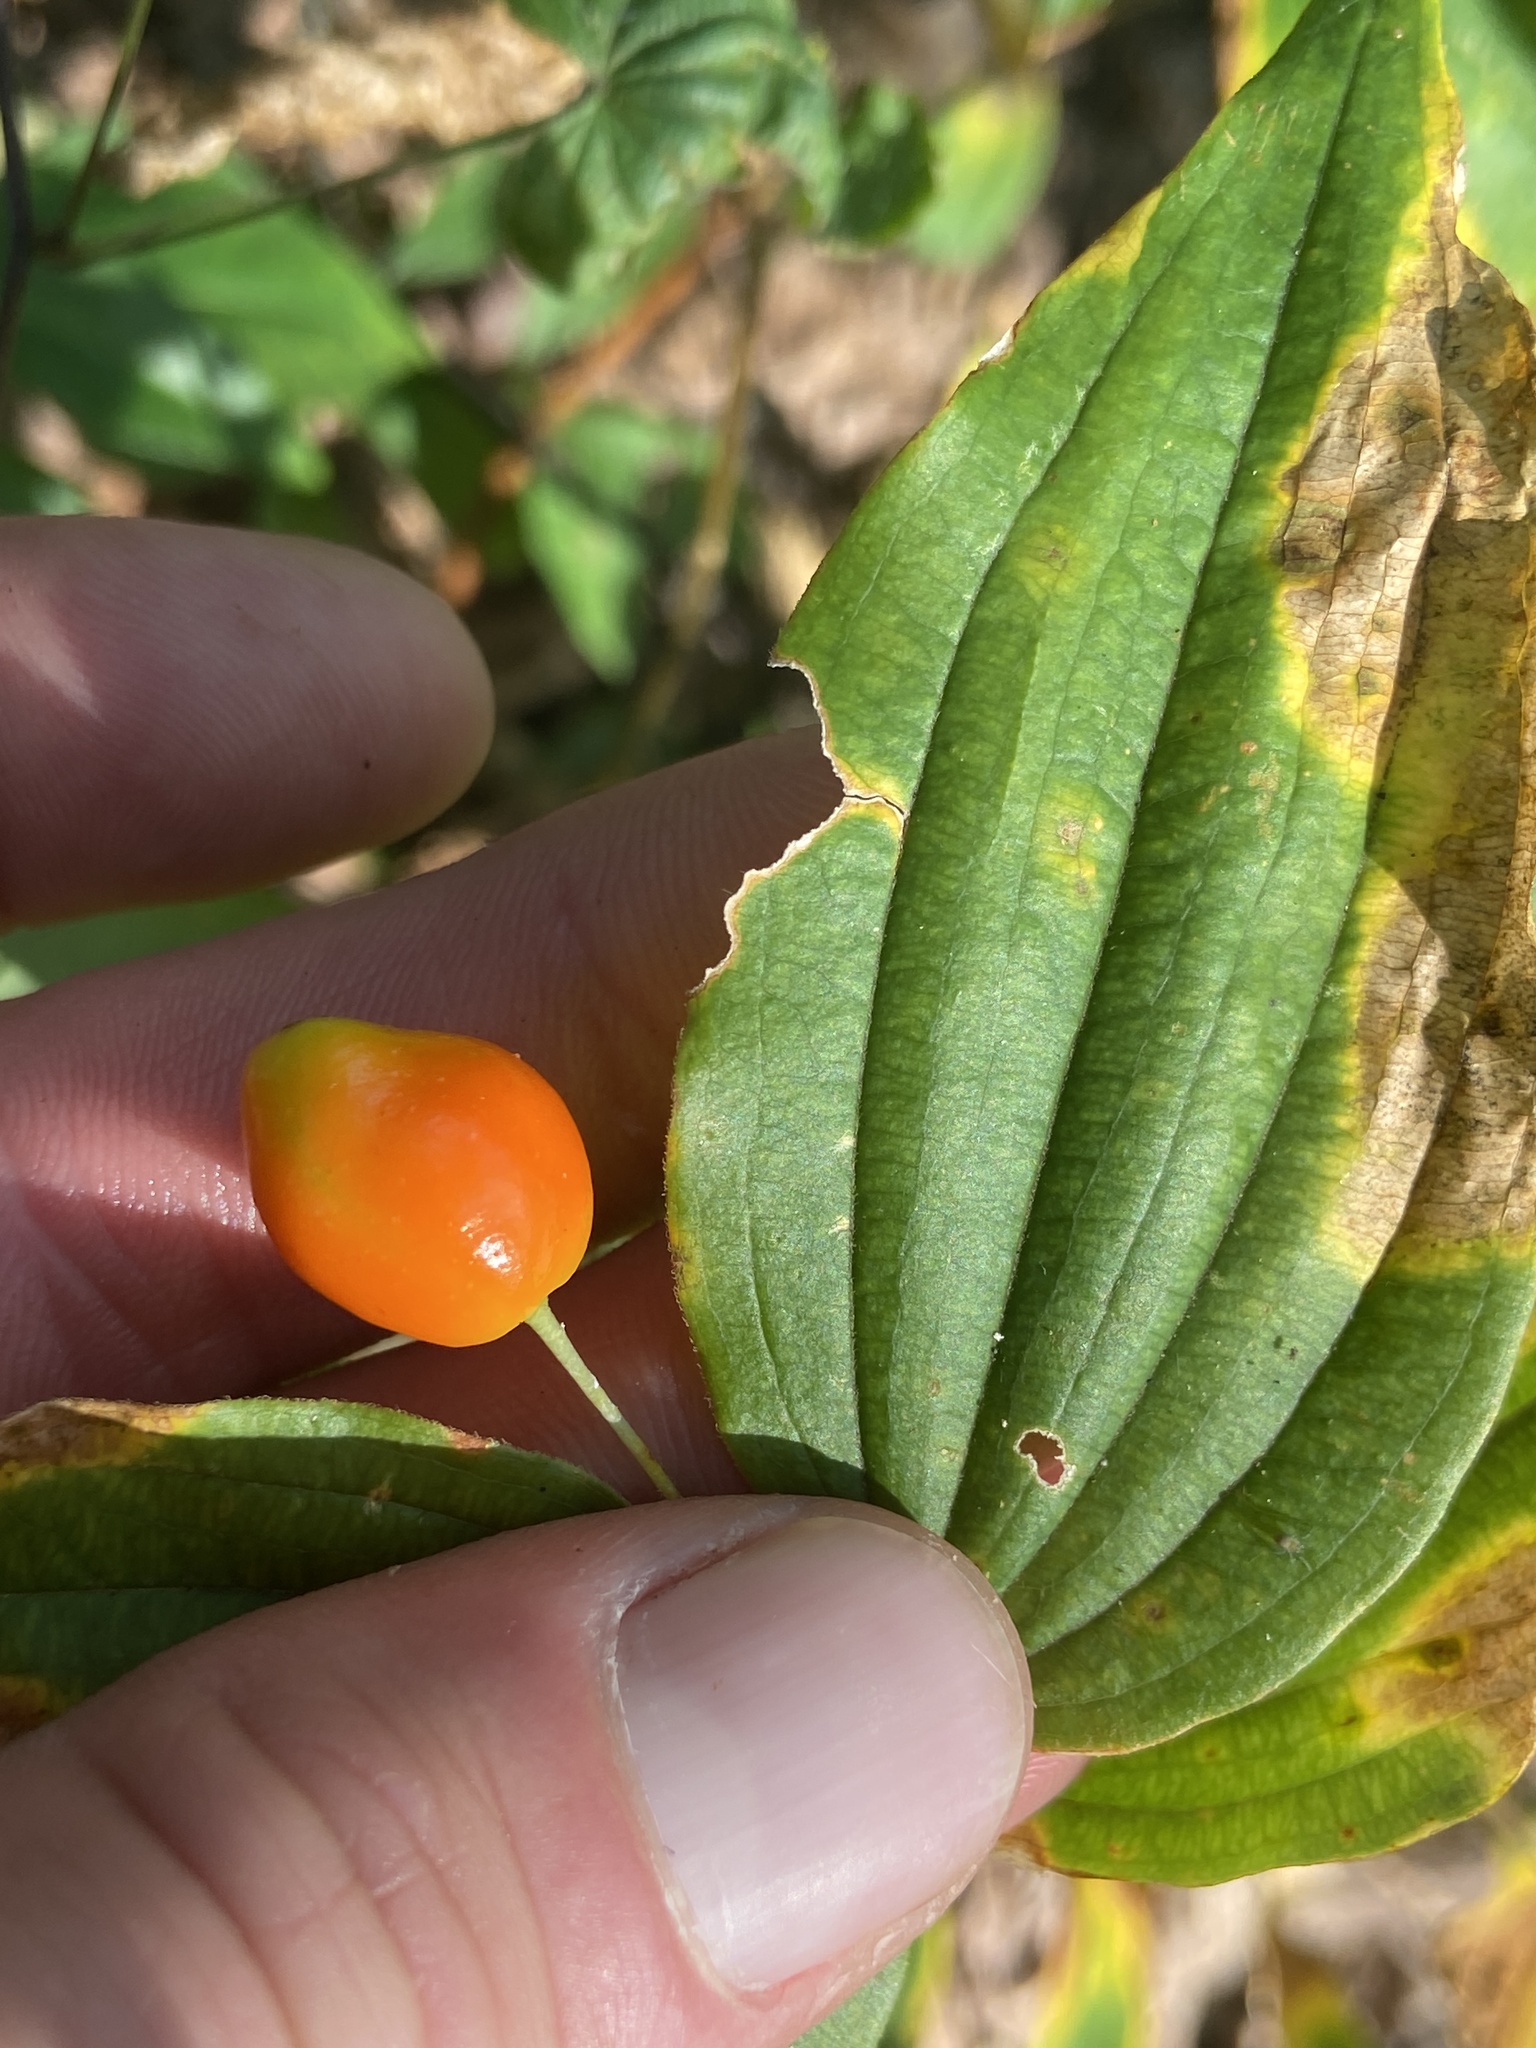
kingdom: Plantae
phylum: Tracheophyta
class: Liliopsida
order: Liliales
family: Liliaceae
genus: Prosartes
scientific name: Prosartes lanuginosa
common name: Hairy mandarin
